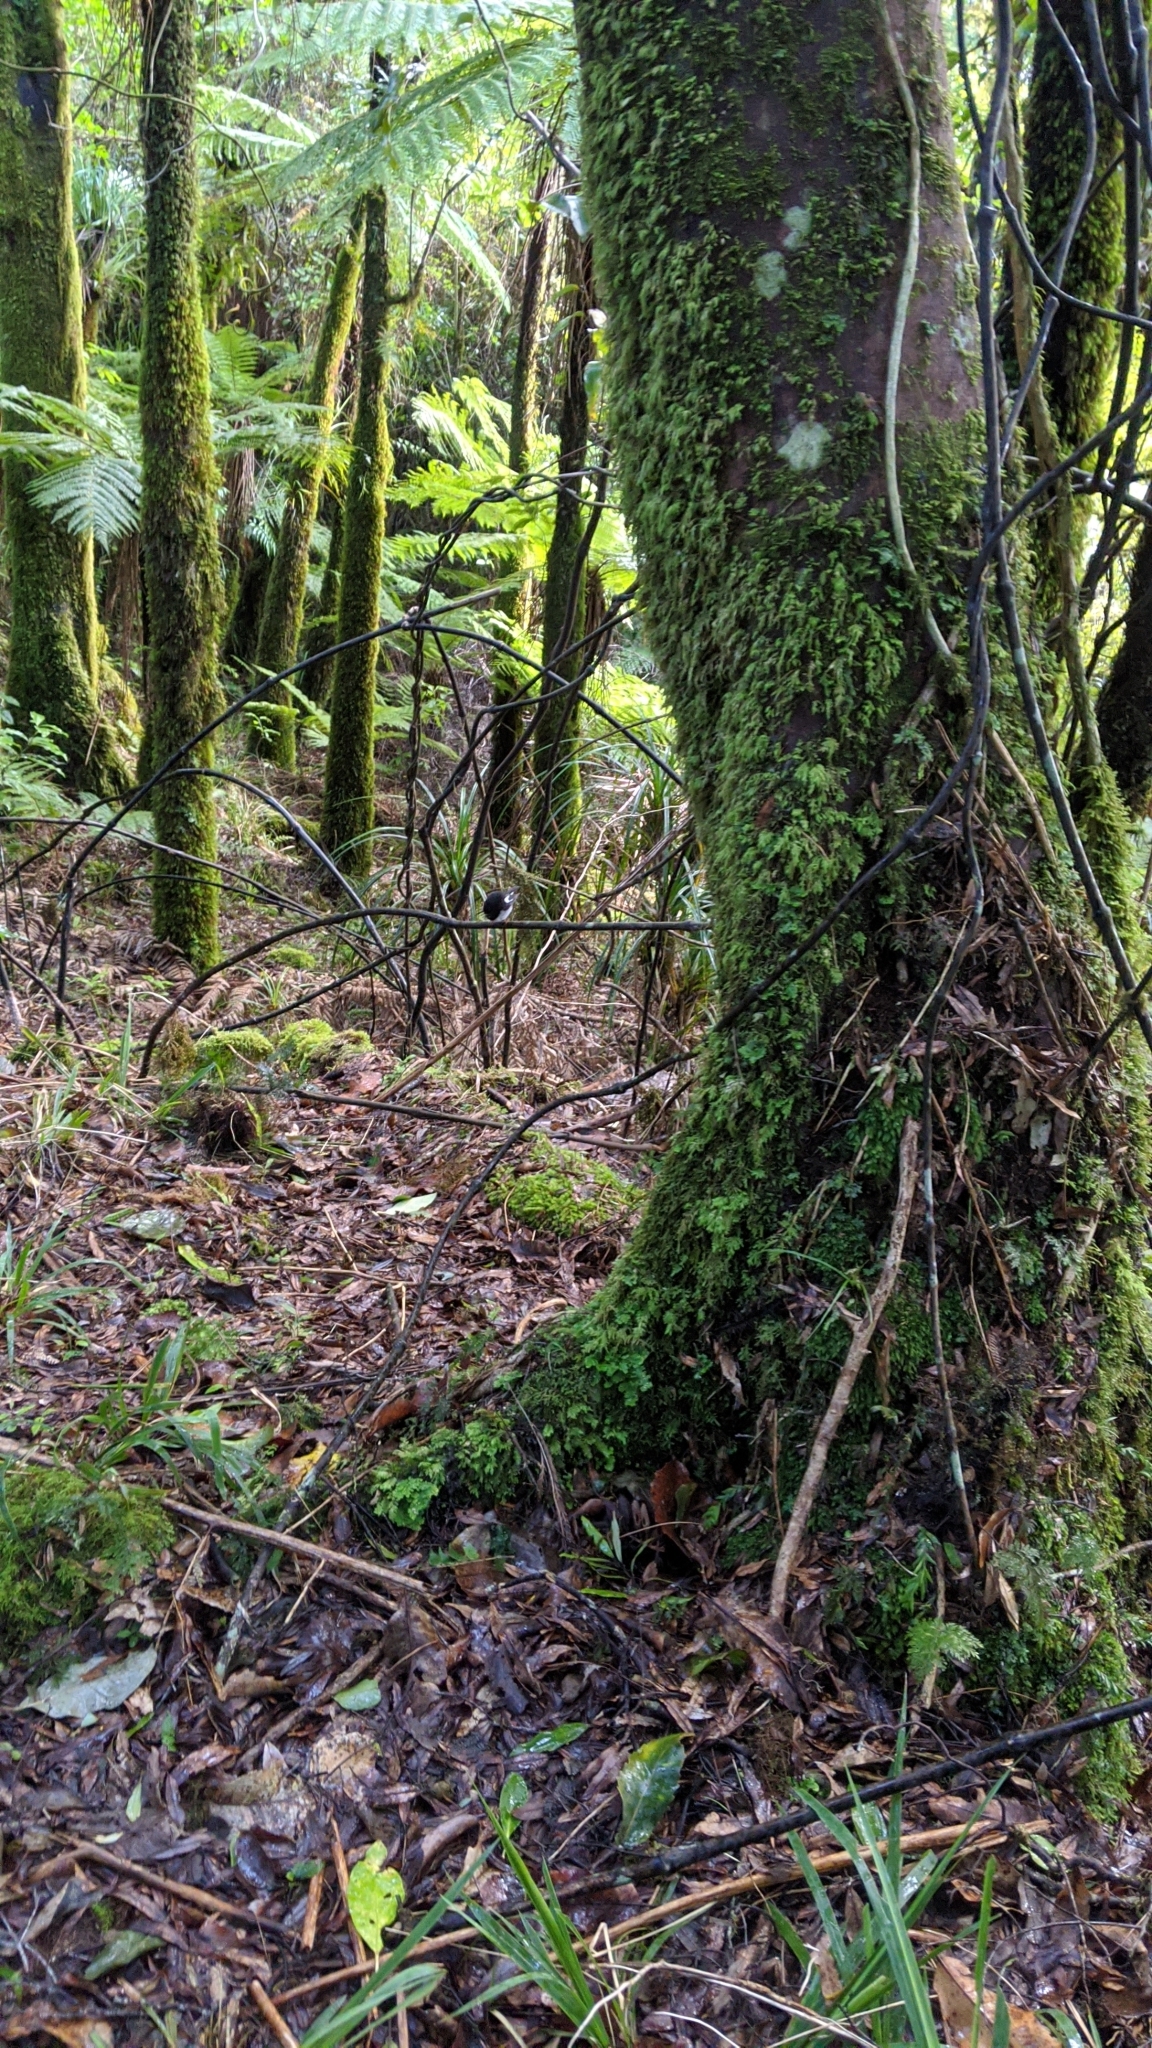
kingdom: Animalia
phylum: Chordata
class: Aves
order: Passeriformes
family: Petroicidae
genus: Petroica
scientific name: Petroica macrocephala
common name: Tomtit
